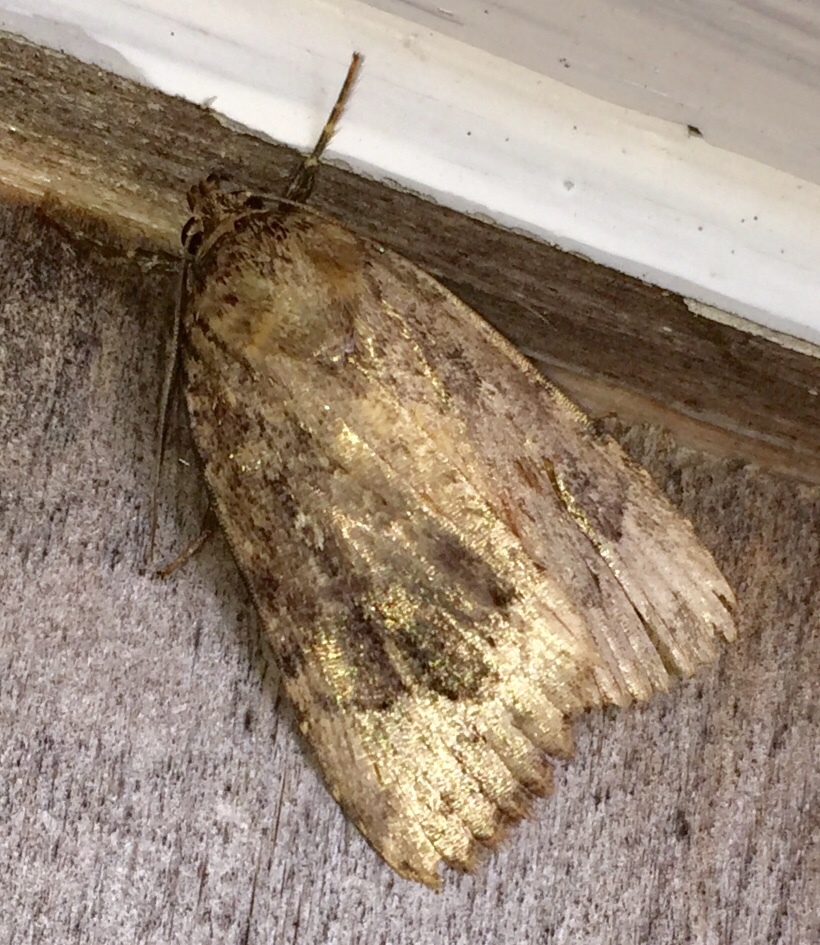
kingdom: Animalia
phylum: Arthropoda
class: Insecta
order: Lepidoptera
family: Noctuidae
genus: Amphipyra
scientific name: Amphipyra pyramidoides
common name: American copper underwing
